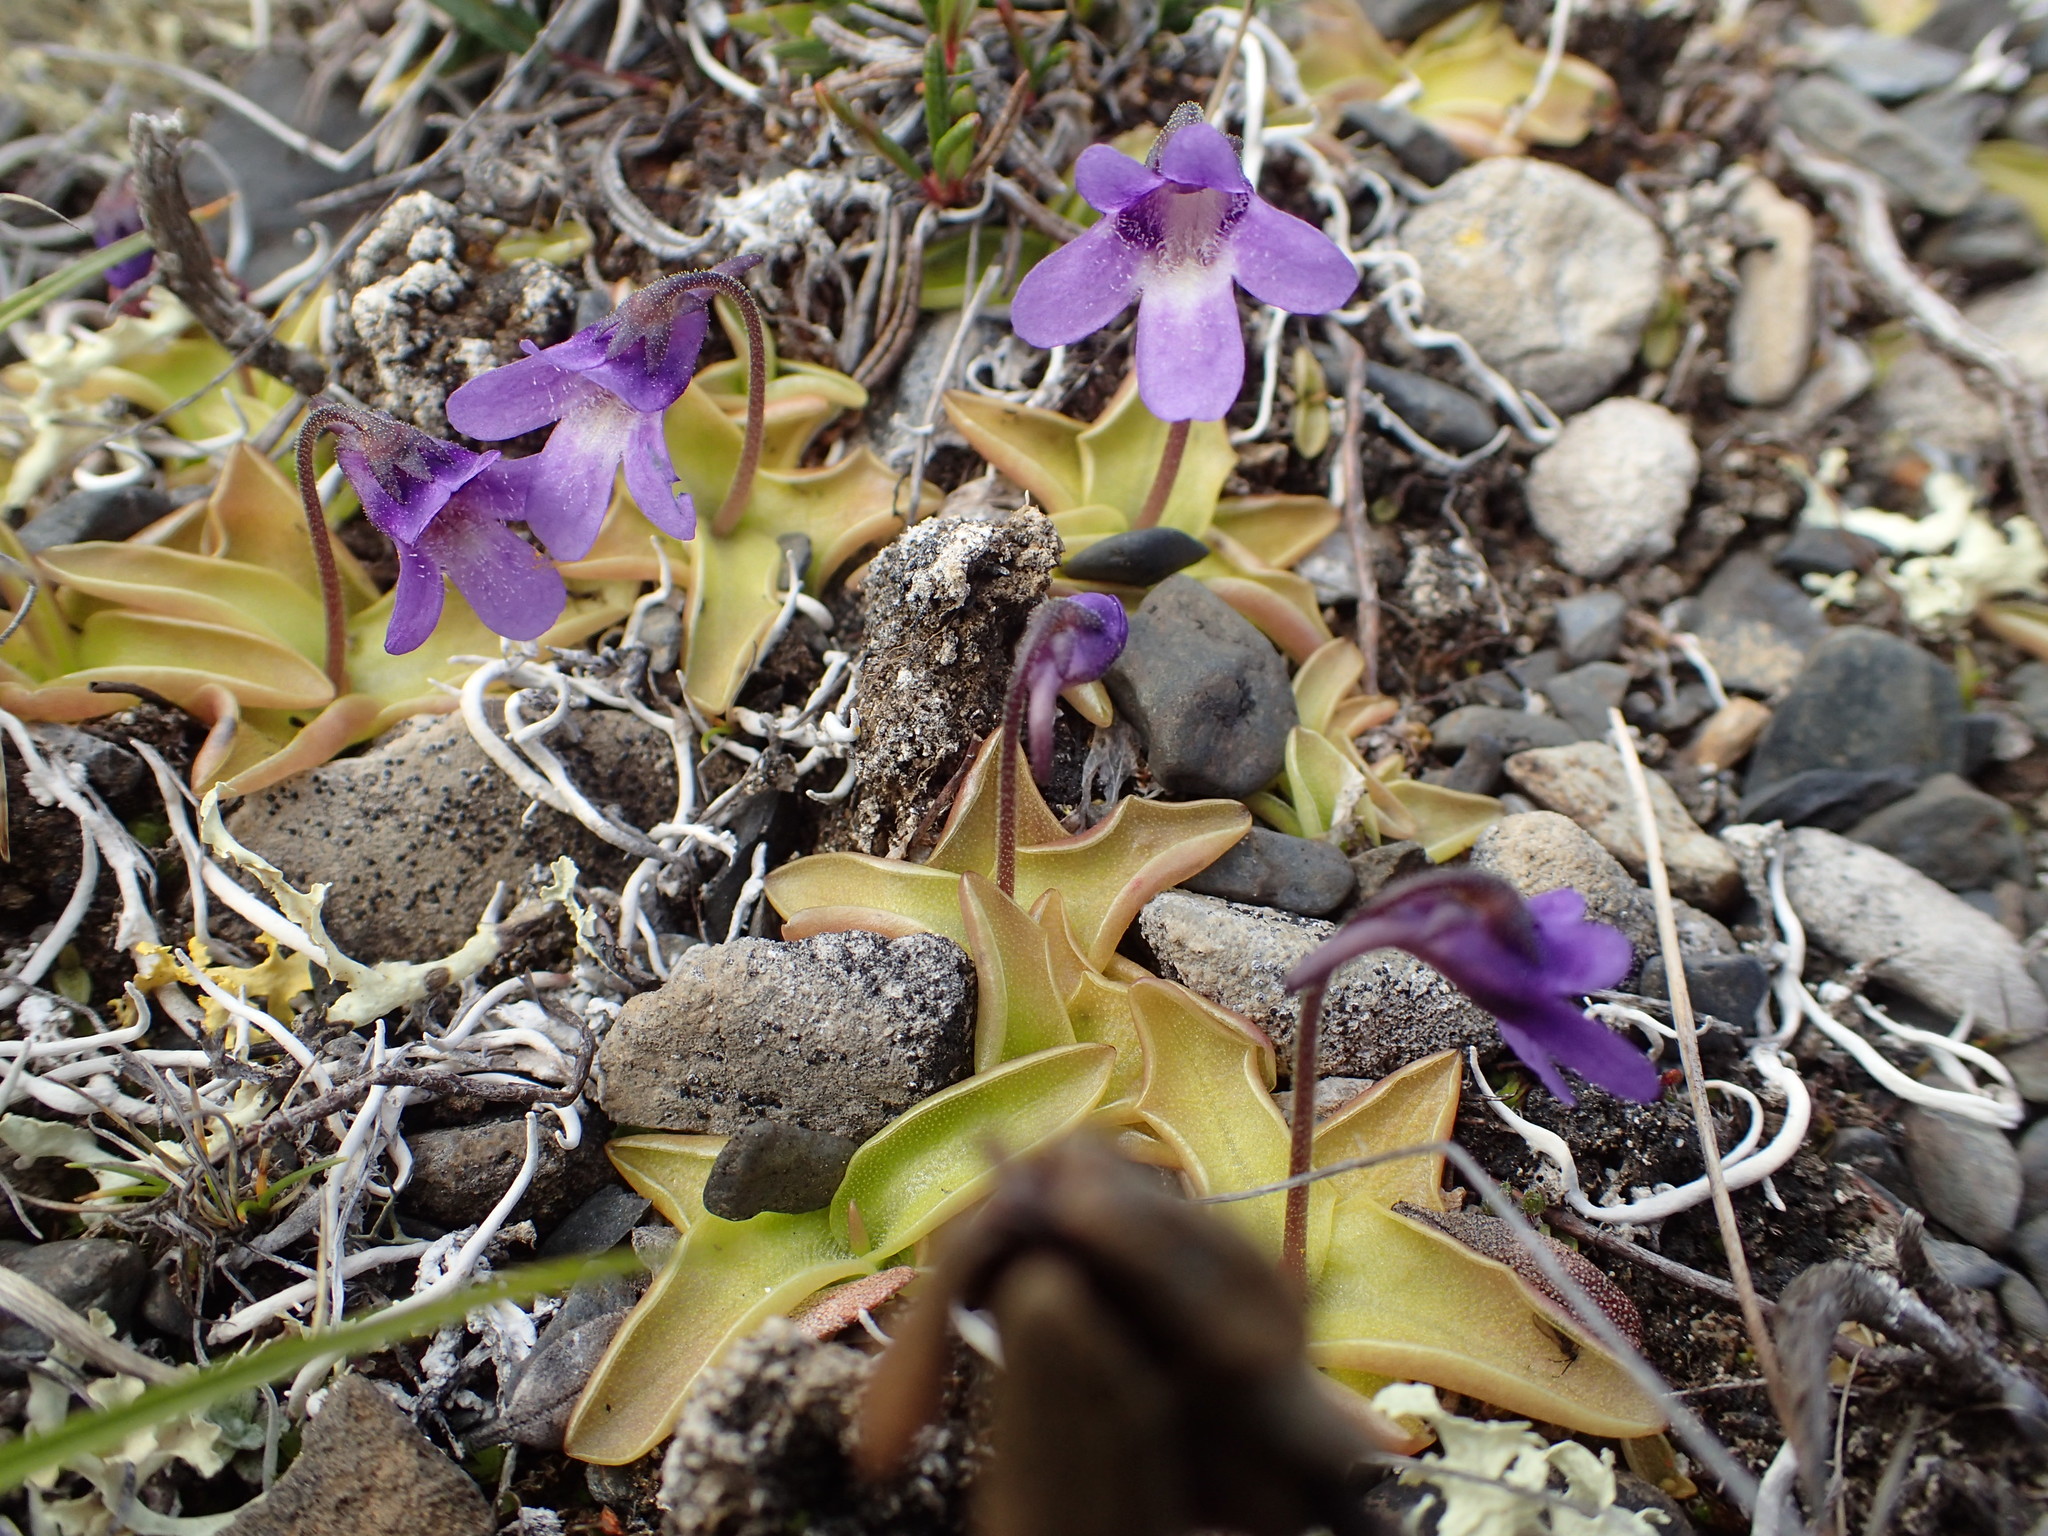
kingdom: Plantae
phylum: Tracheophyta
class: Magnoliopsida
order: Lamiales
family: Lentibulariaceae
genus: Pinguicula
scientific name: Pinguicula vulgaris
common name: Common butterwort
